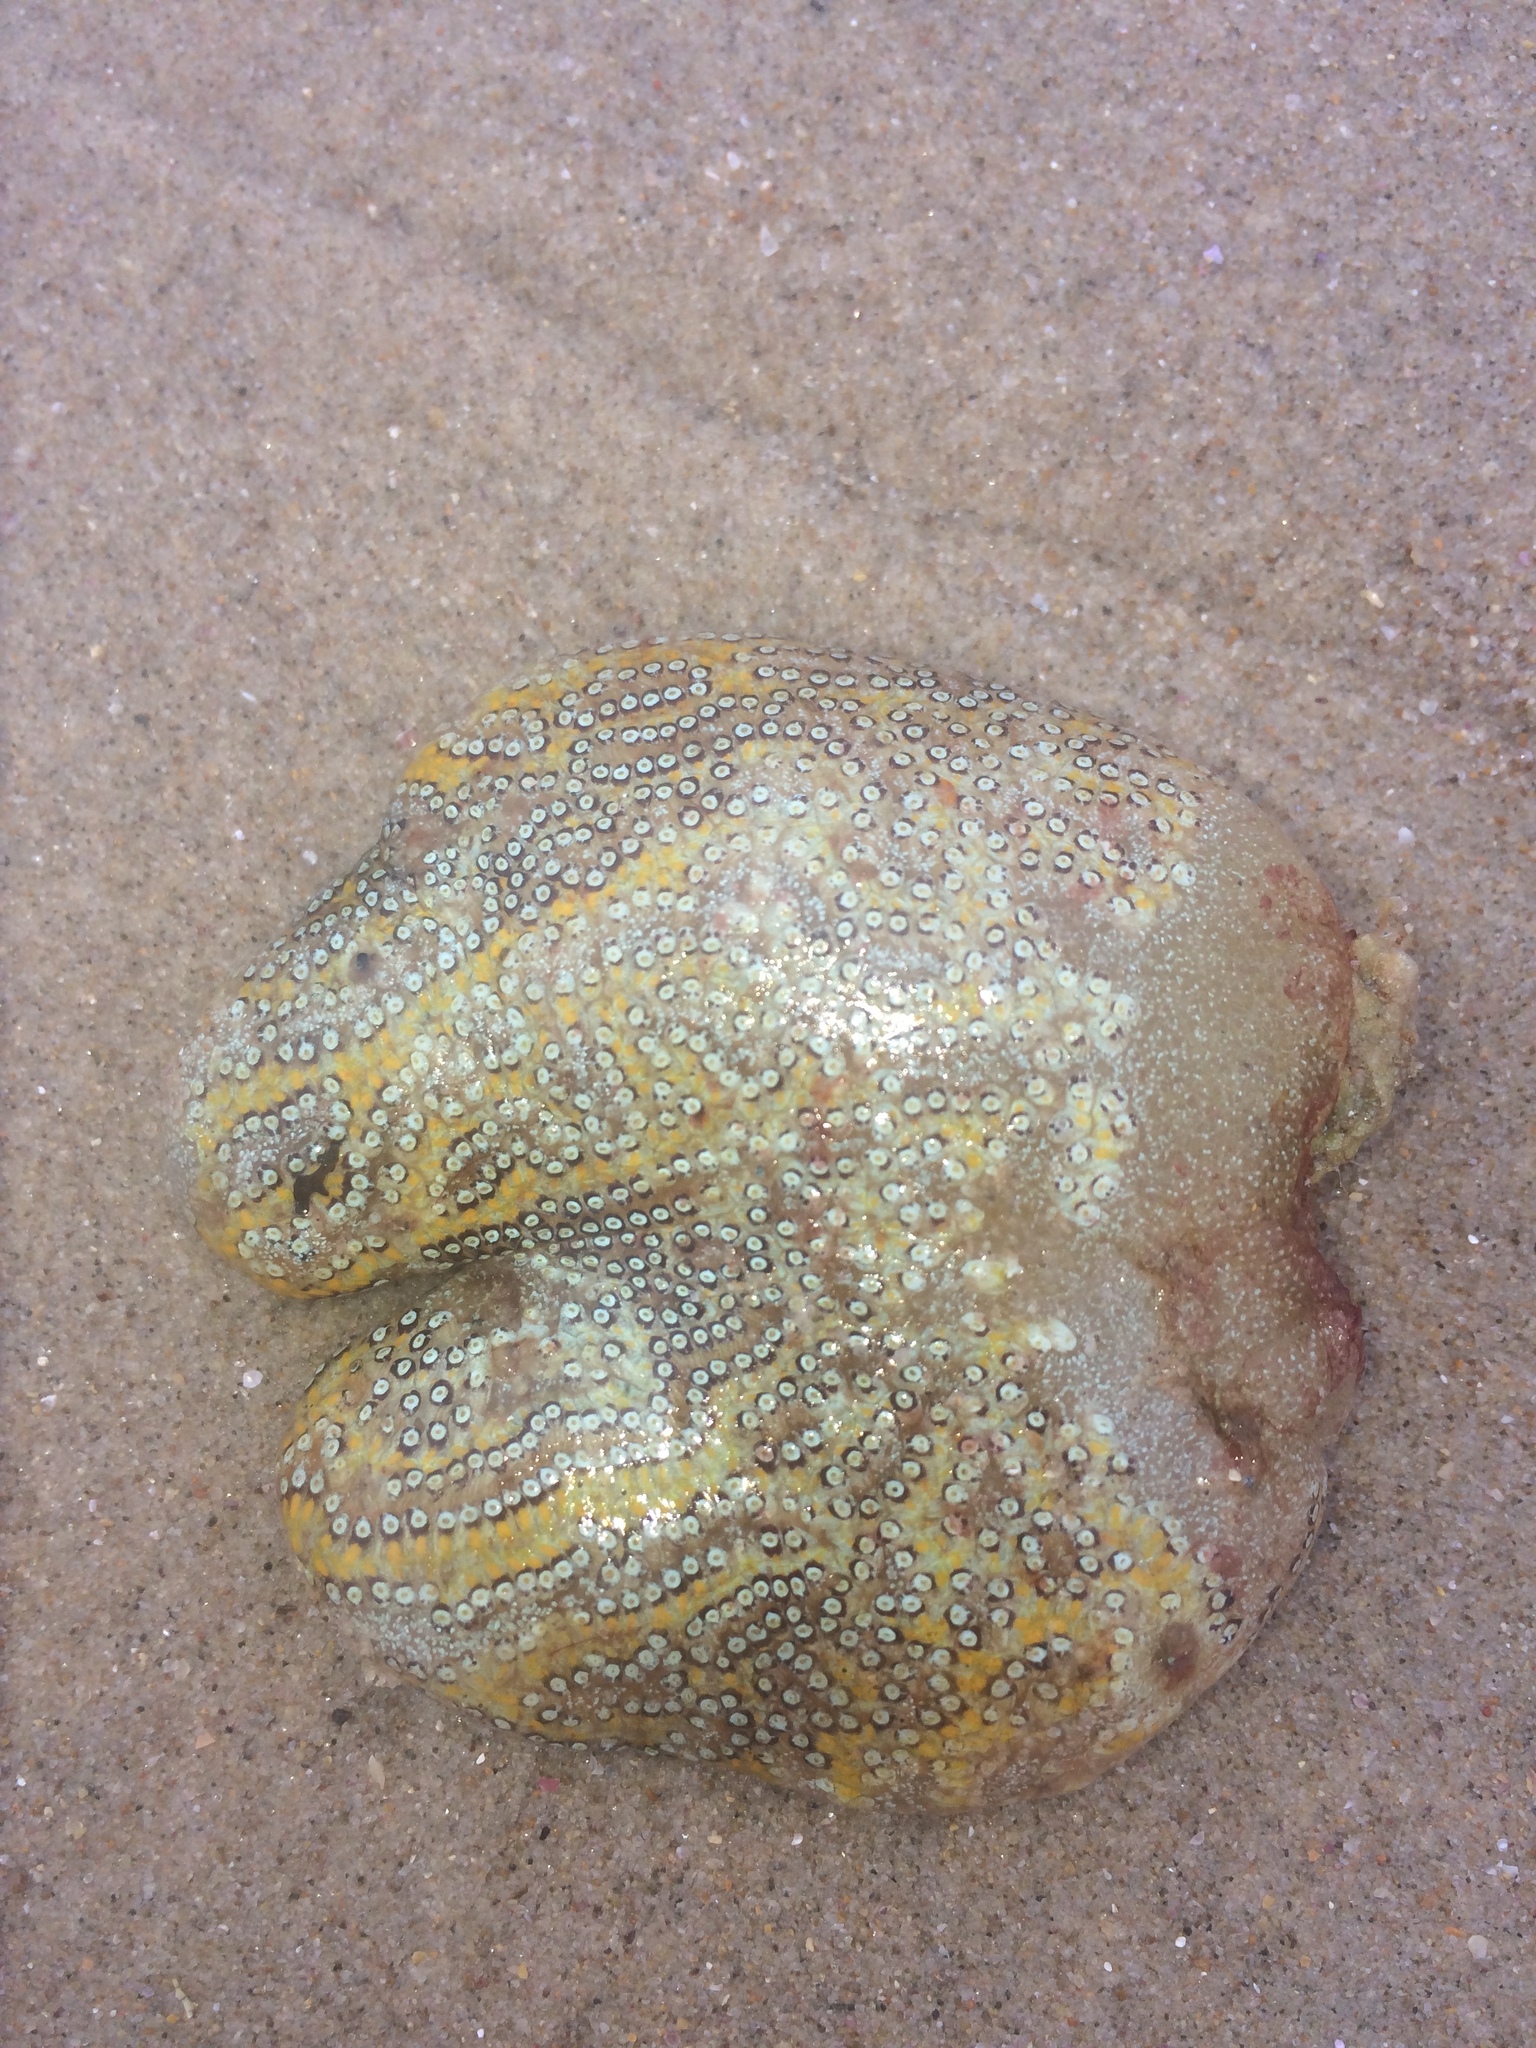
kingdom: Animalia
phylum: Chordata
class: Ascidiacea
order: Stolidobranchia
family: Styelidae
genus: Botrylloides
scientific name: Botrylloides magnicoecus
